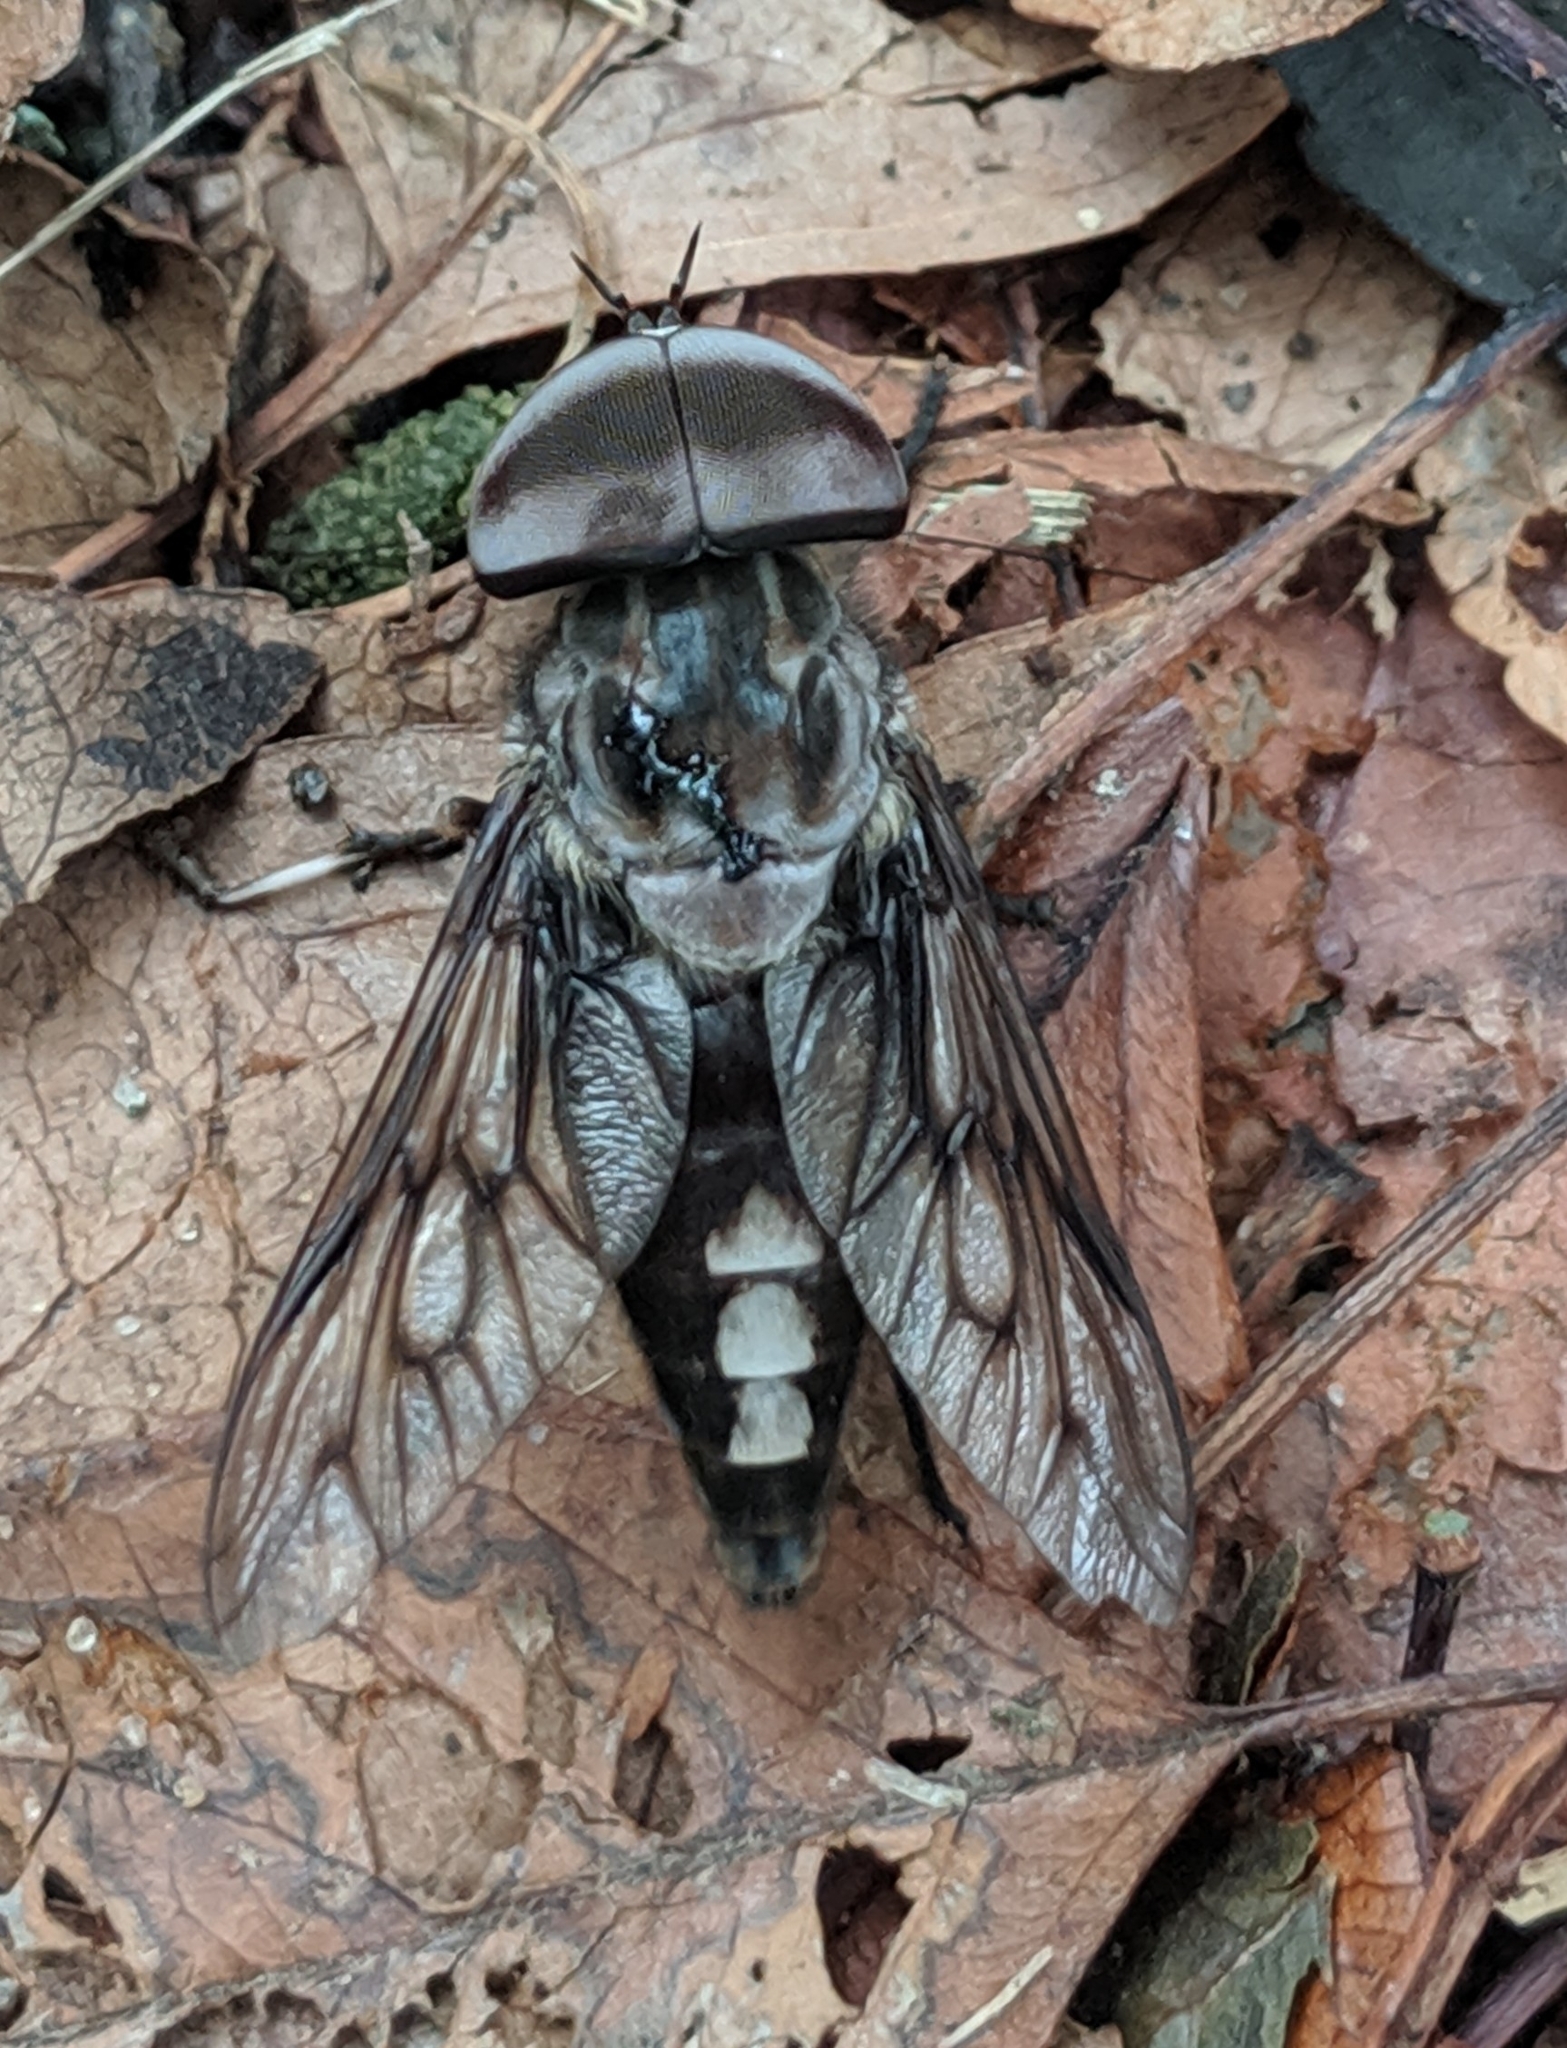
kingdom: Animalia
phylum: Arthropoda
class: Insecta
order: Diptera
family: Tabanidae
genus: Tabanus
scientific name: Tabanus trimaculatus
